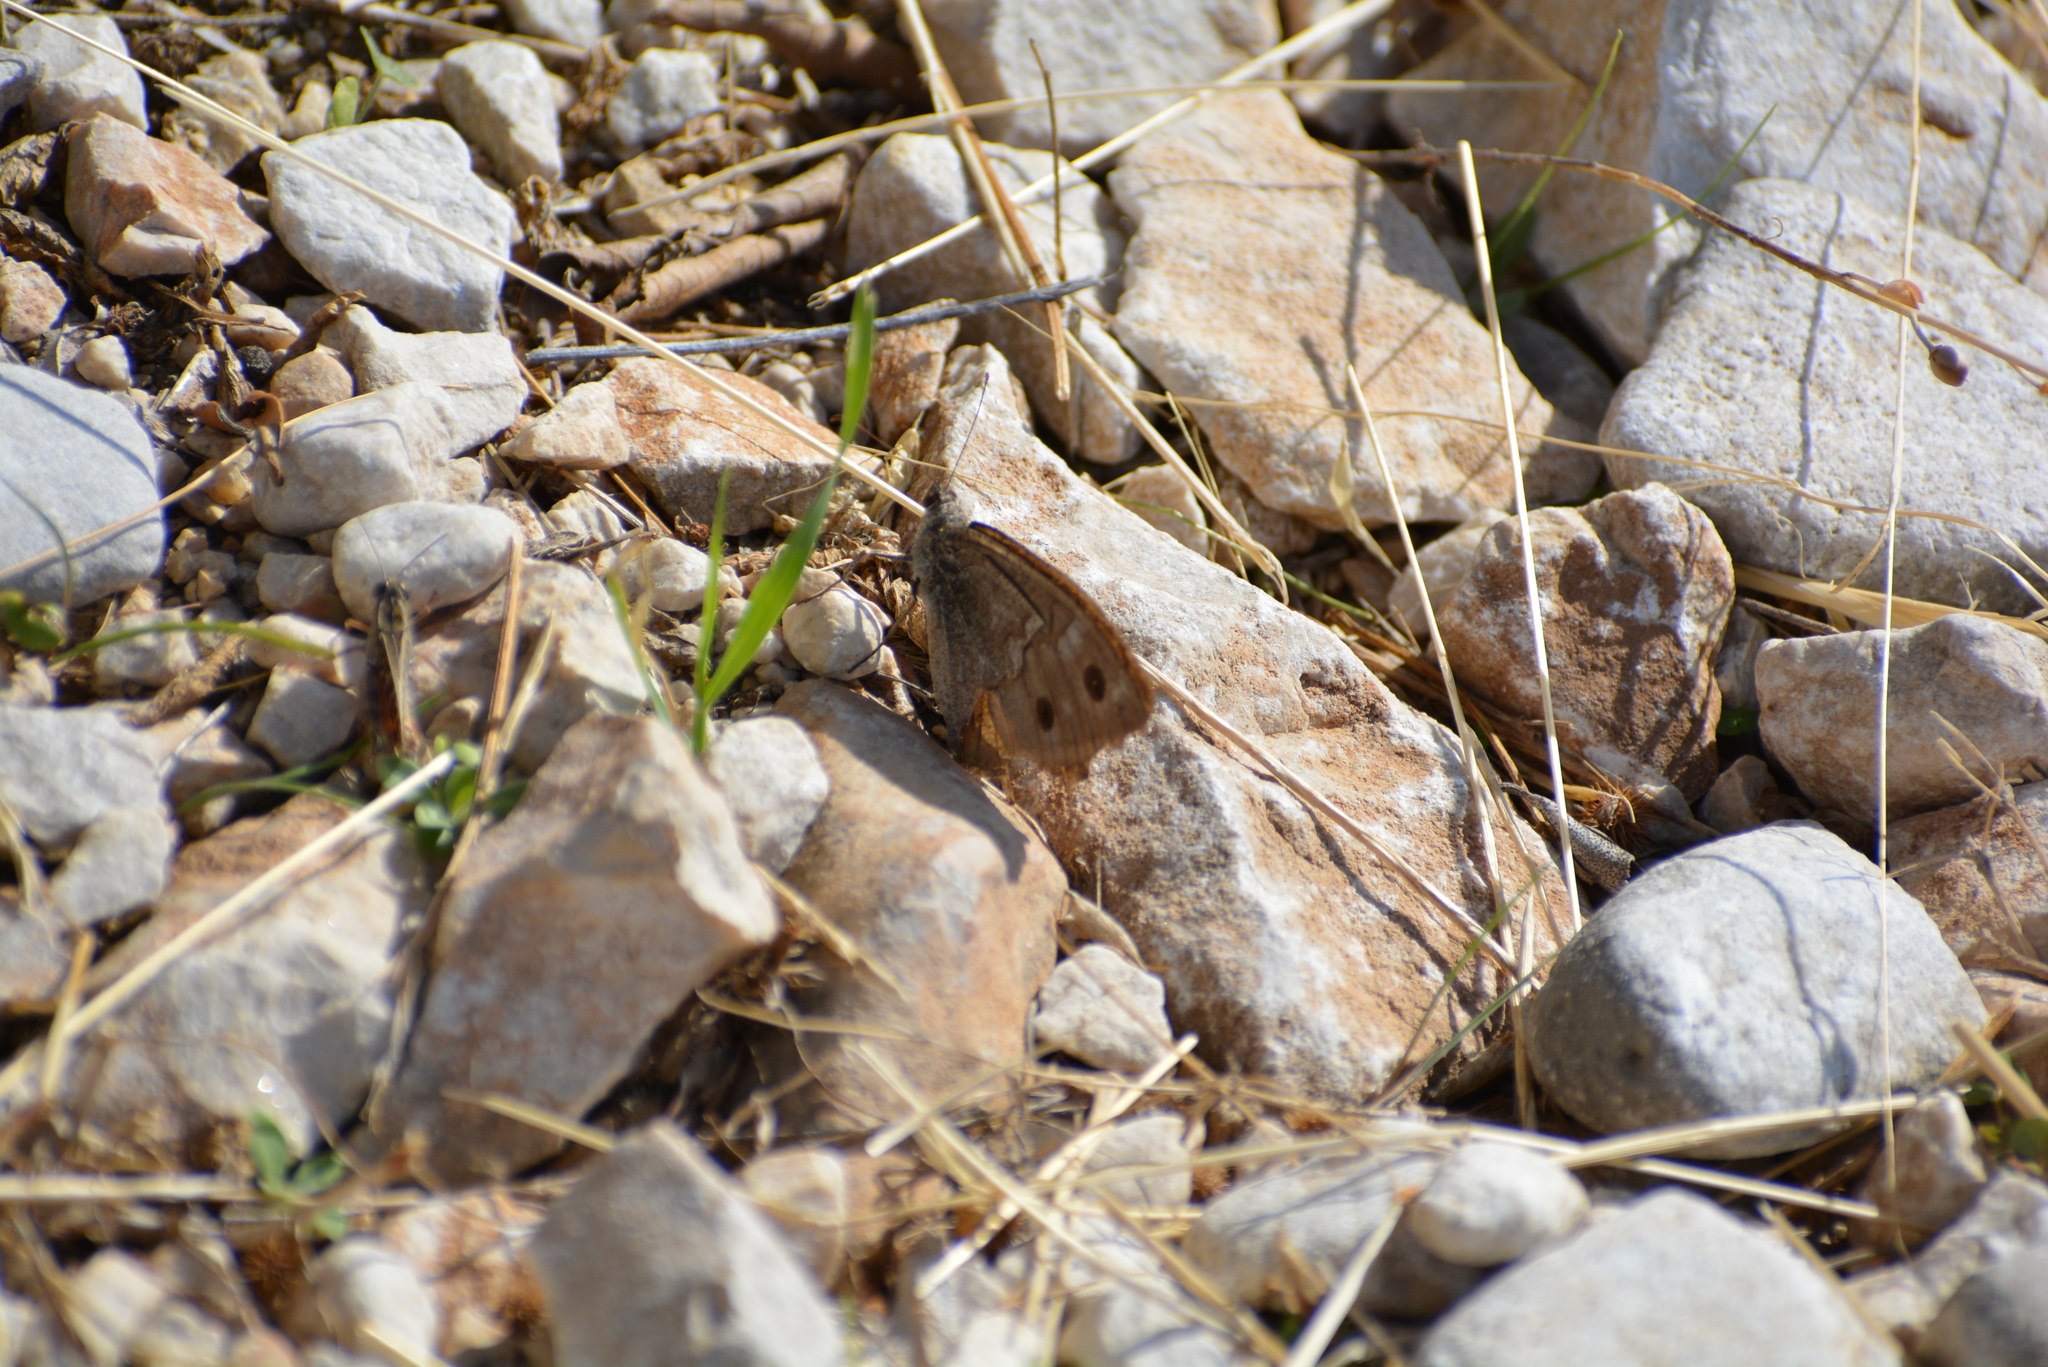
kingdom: Animalia
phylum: Arthropoda
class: Insecta
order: Lepidoptera
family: Nymphalidae
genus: Hipparchia
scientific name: Hipparchia statilinus
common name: Tree grayling
